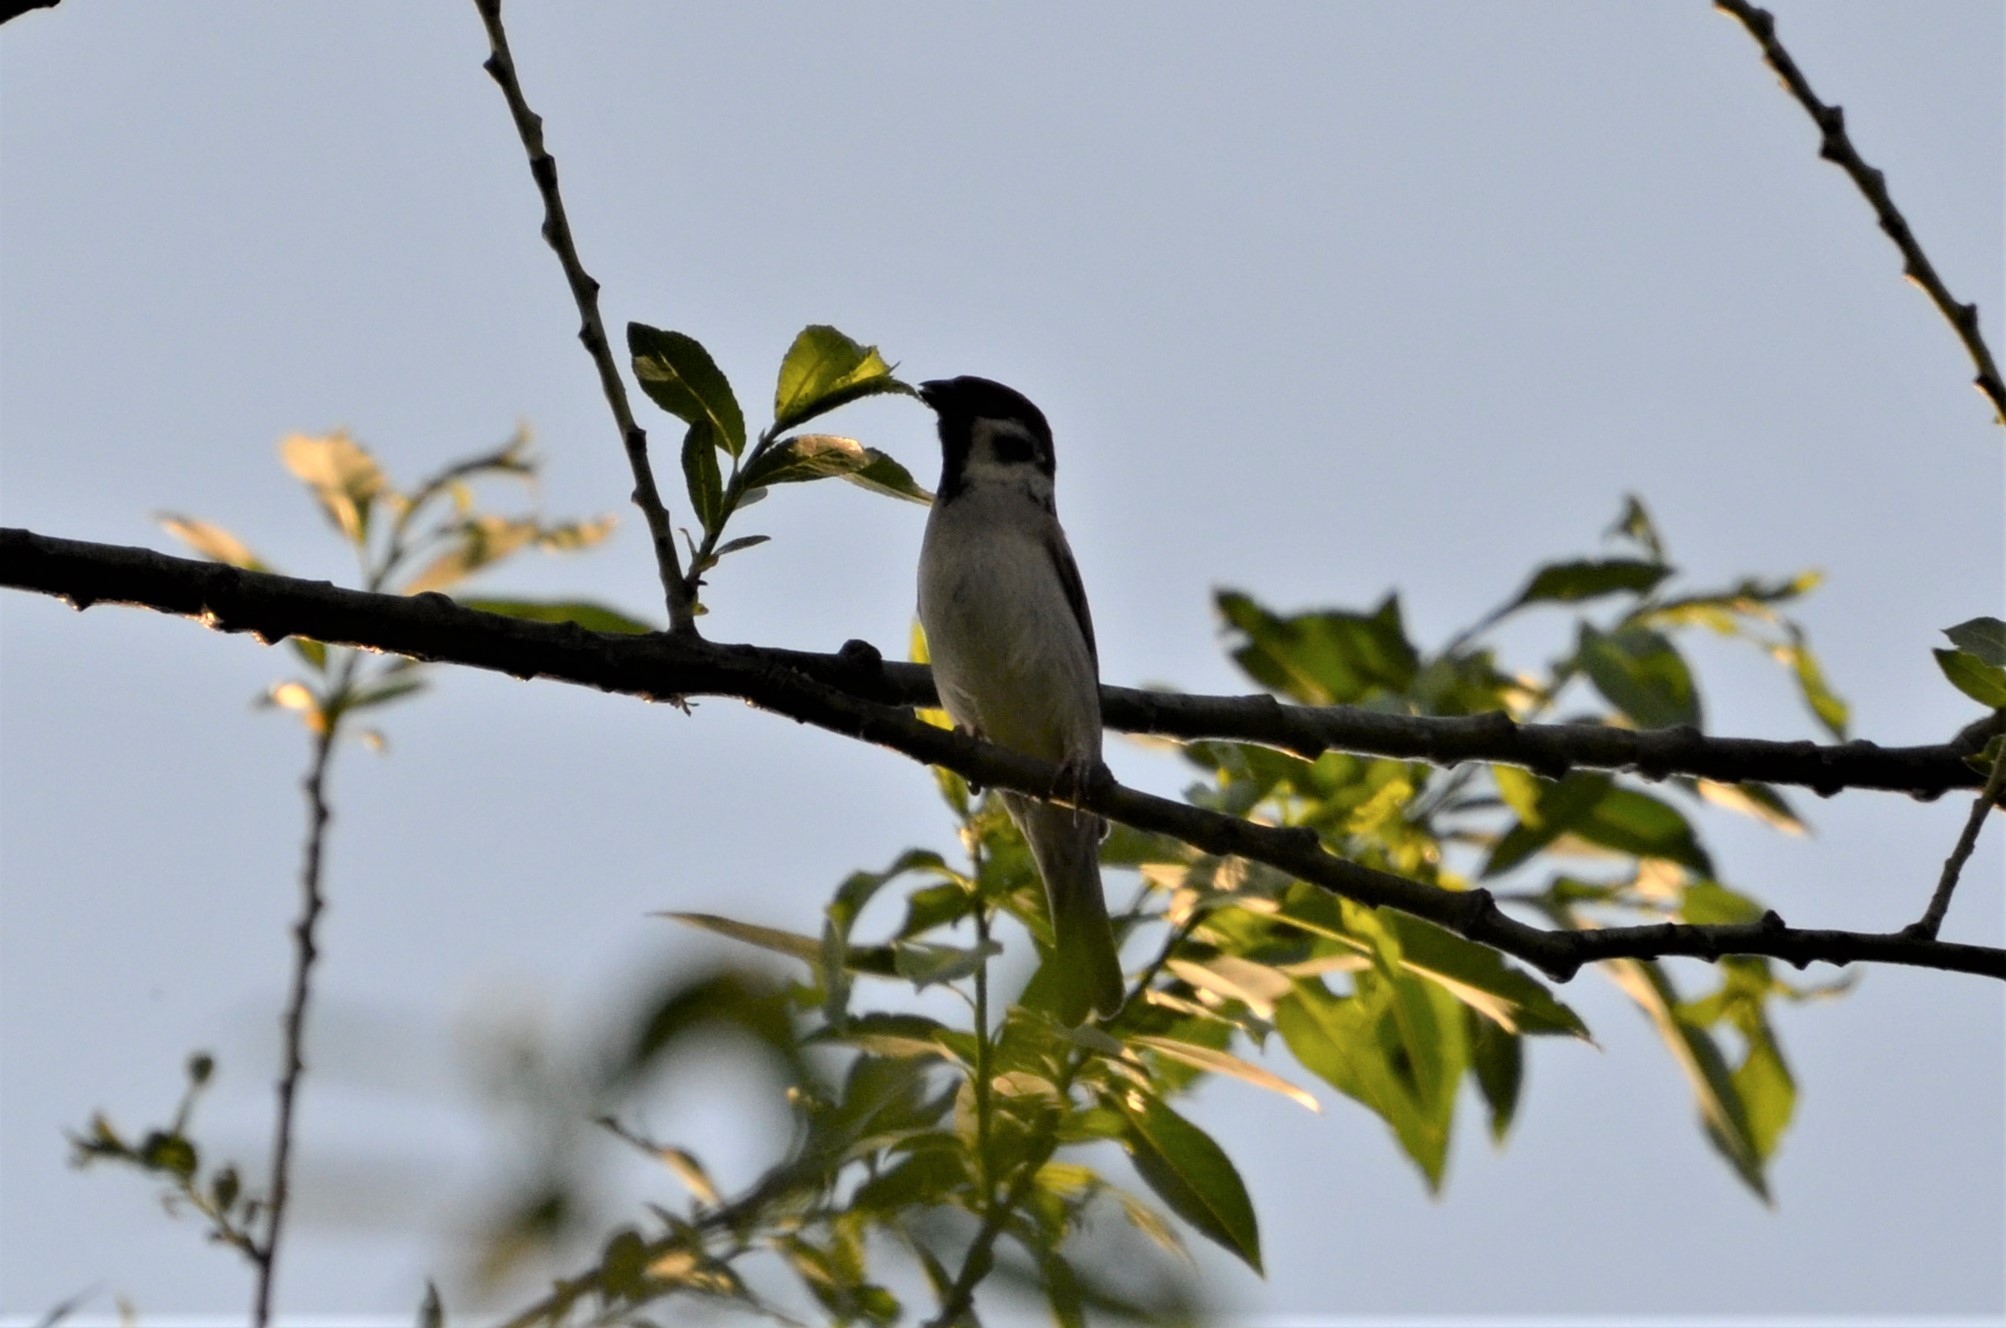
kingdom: Animalia
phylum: Chordata
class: Aves
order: Passeriformes
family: Passeridae
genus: Passer
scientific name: Passer montanus
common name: Eurasian tree sparrow
